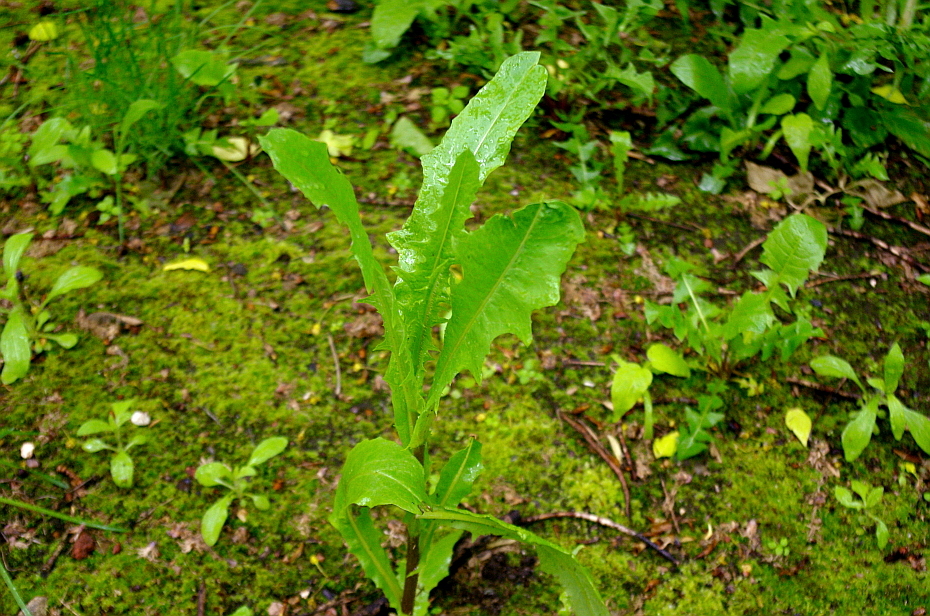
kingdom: Plantae
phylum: Tracheophyta
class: Magnoliopsida
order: Asterales
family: Asteraceae
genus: Sonchus
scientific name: Sonchus oleraceus
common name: Common sowthistle
